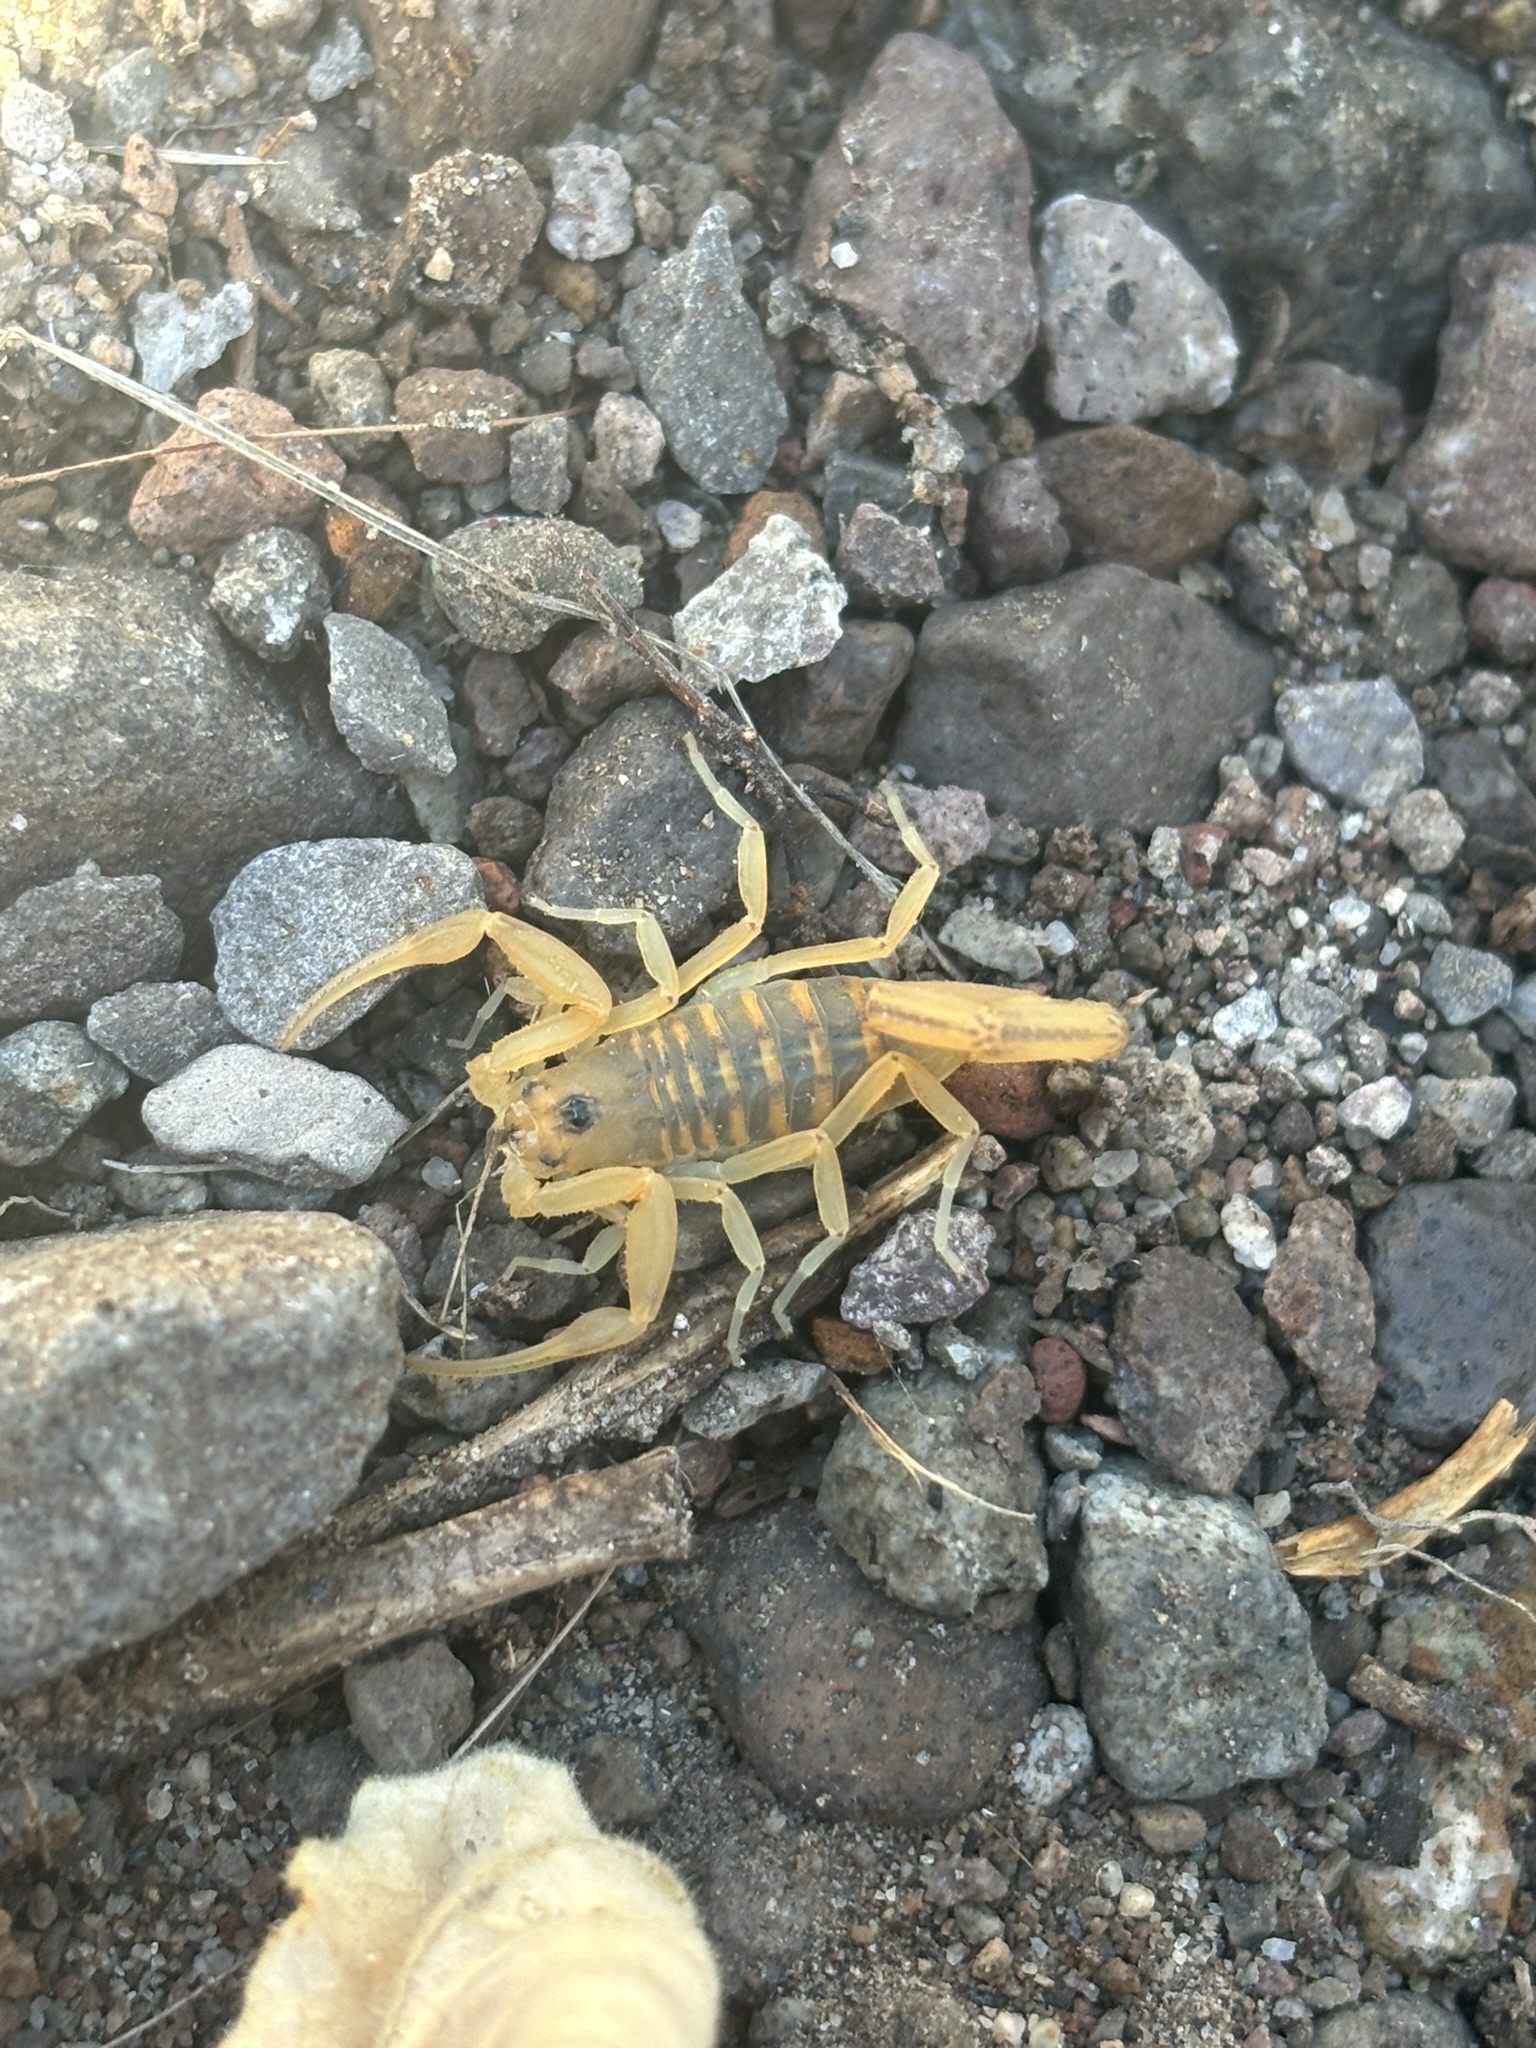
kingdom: Animalia
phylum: Arthropoda
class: Arachnida
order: Scorpiones
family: Buthidae
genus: Centruroides
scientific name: Centruroides exilicauda
